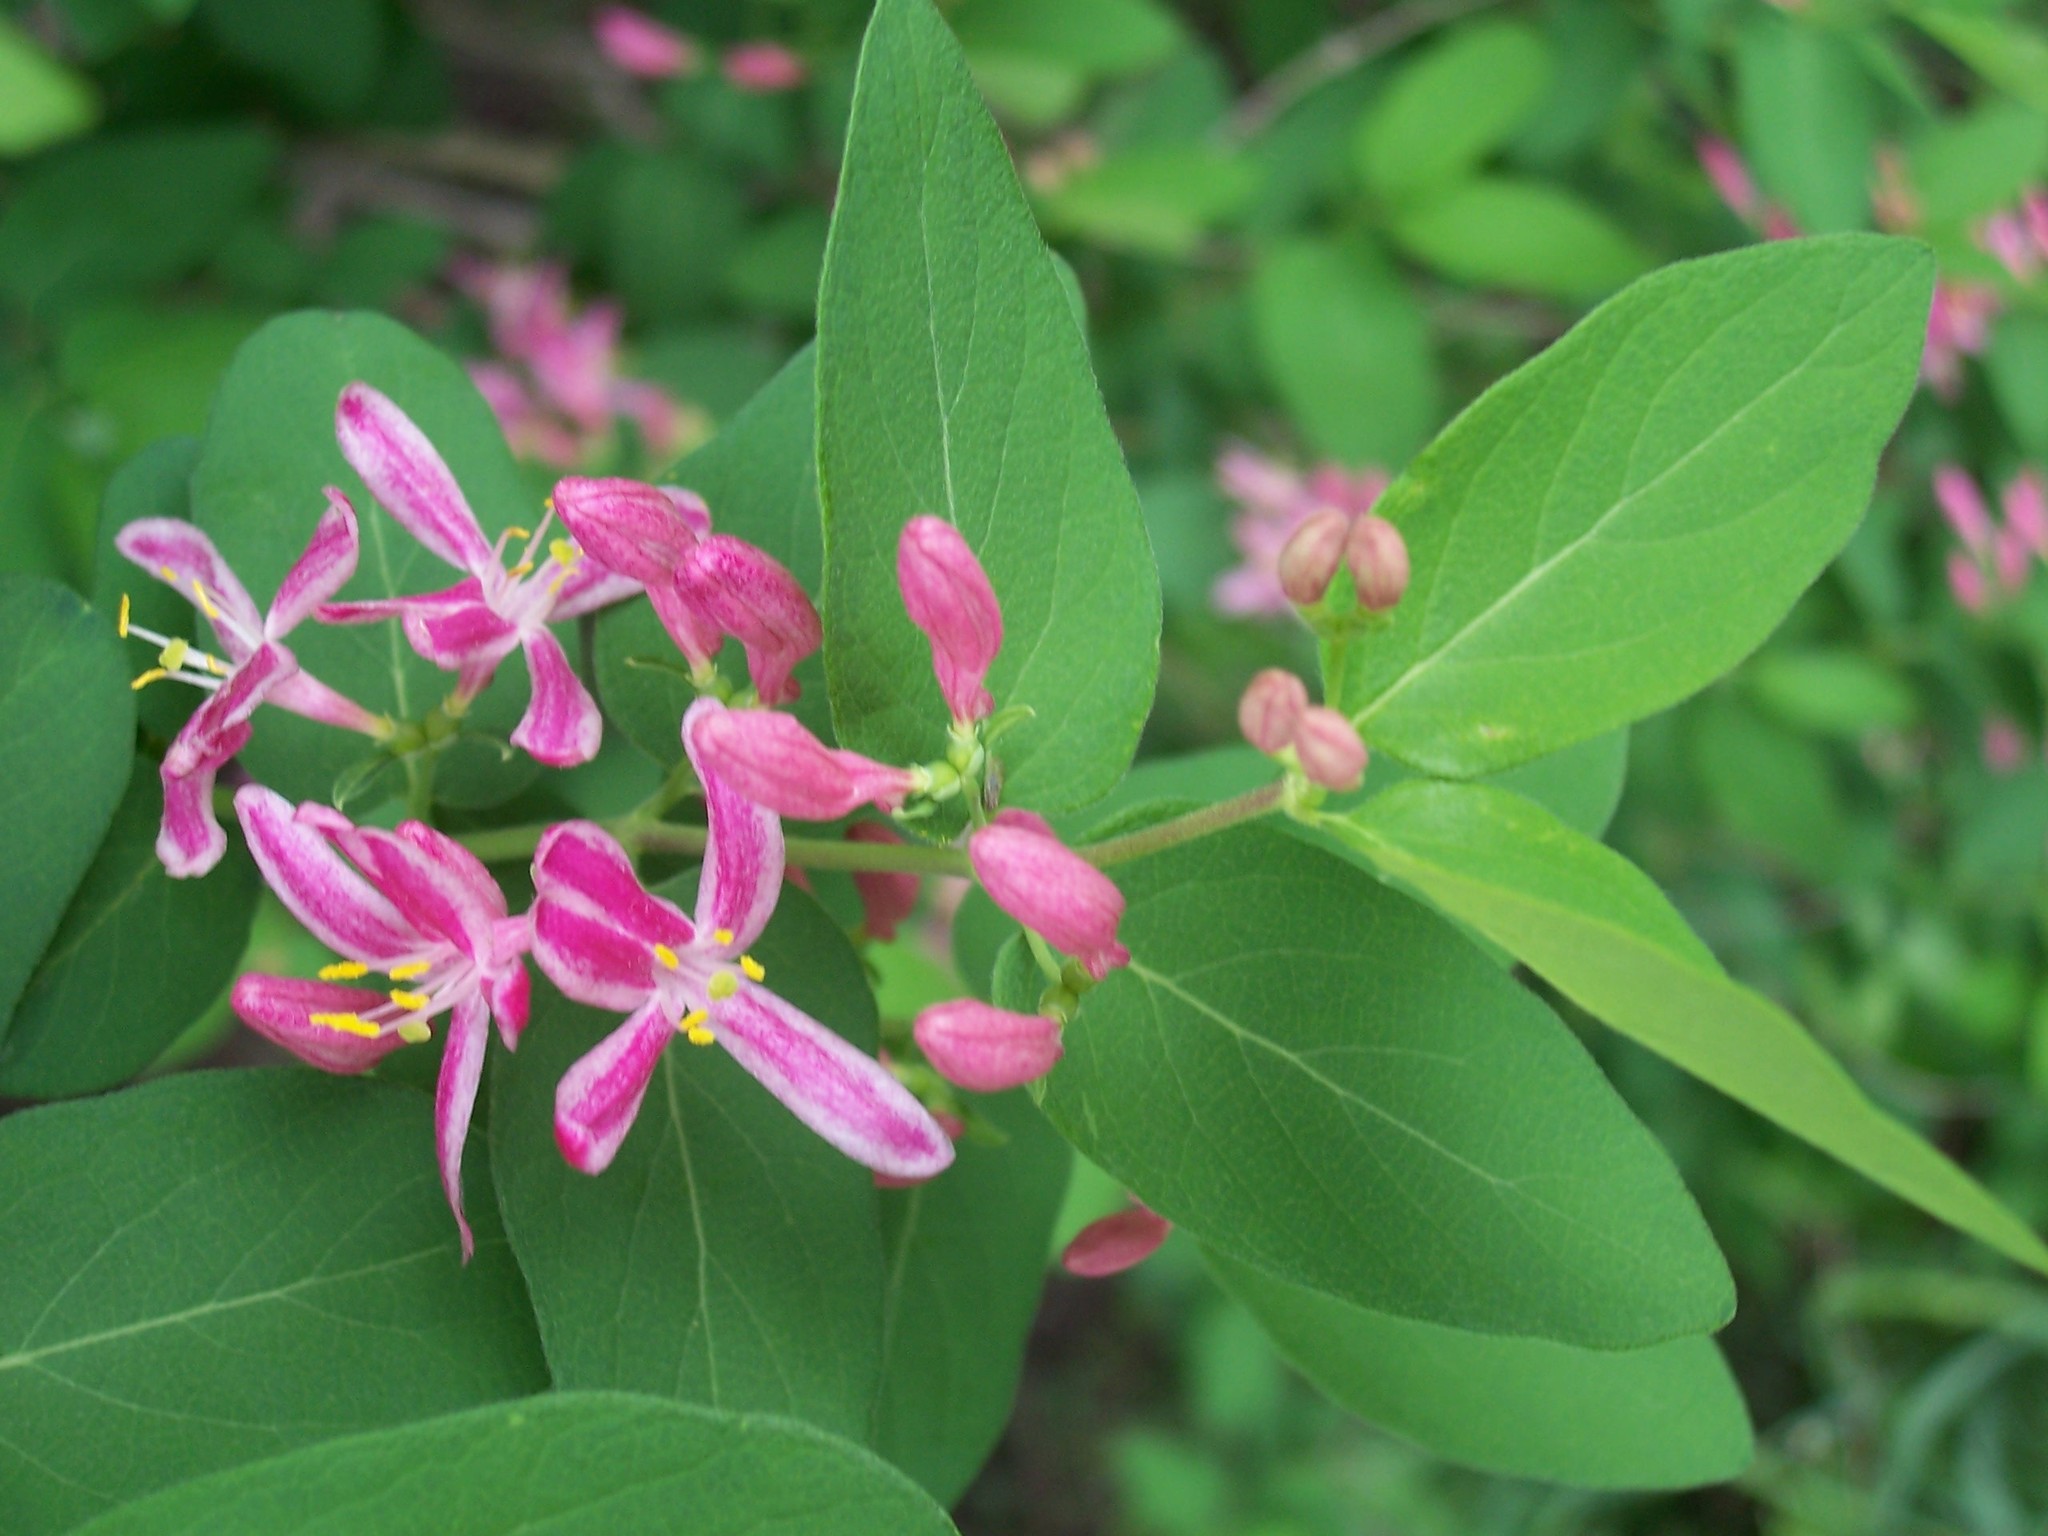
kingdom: Plantae
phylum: Tracheophyta
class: Magnoliopsida
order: Dipsacales
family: Caprifoliaceae
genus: Lonicera
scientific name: Lonicera tatarica
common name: Tatarian honeysuckle
